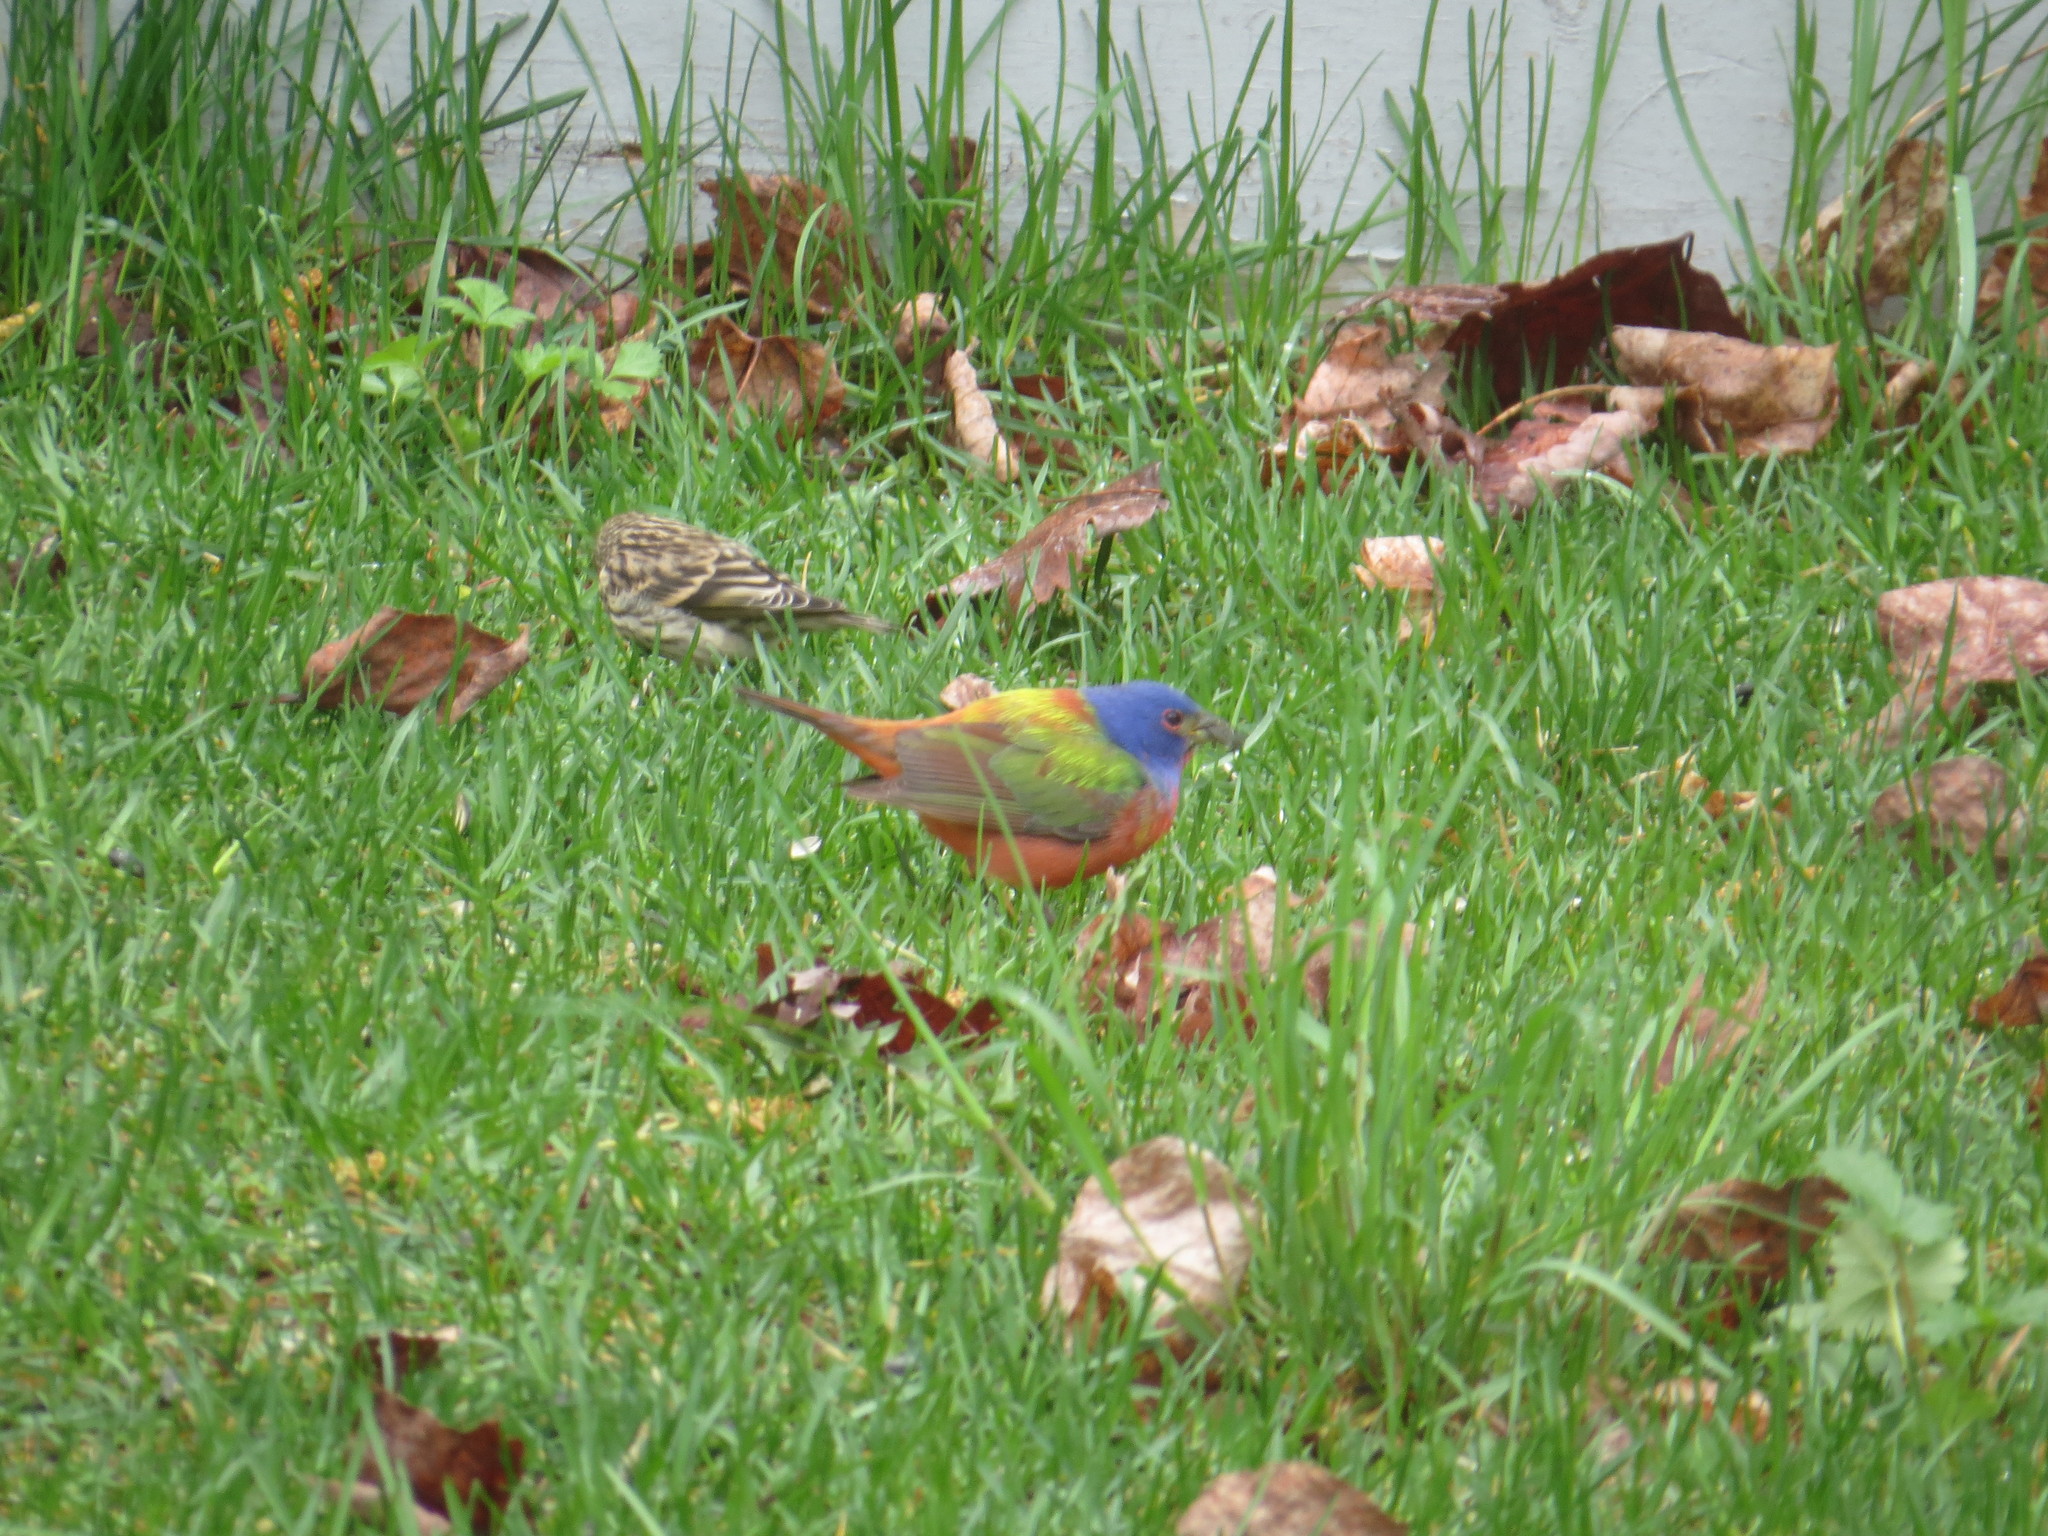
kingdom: Animalia
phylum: Chordata
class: Aves
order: Passeriformes
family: Cardinalidae
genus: Passerina
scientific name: Passerina ciris
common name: Painted bunting
